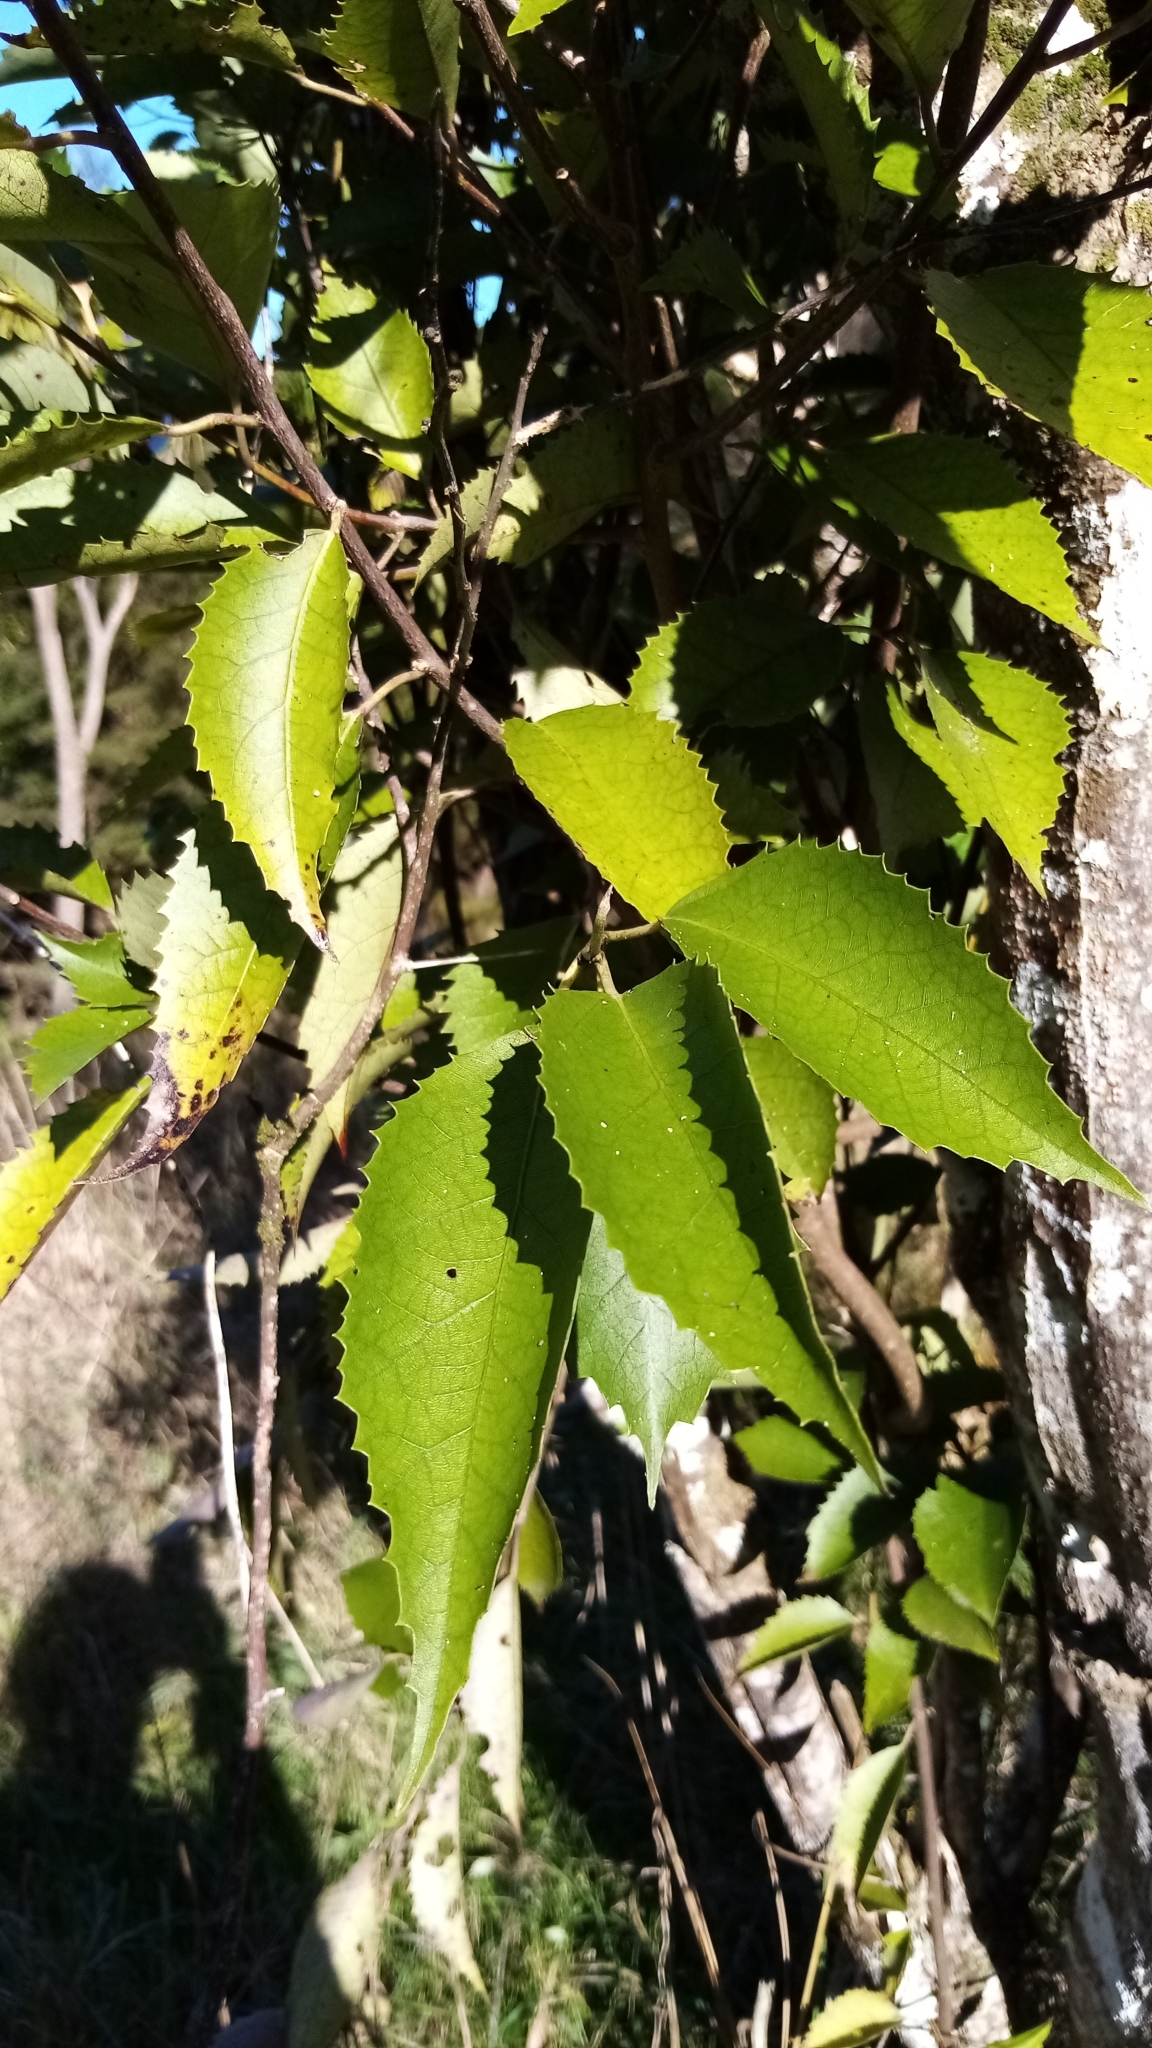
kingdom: Plantae
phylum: Tracheophyta
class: Magnoliopsida
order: Malvales
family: Malvaceae
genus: Hoheria
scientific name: Hoheria populnea
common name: Lacebark
